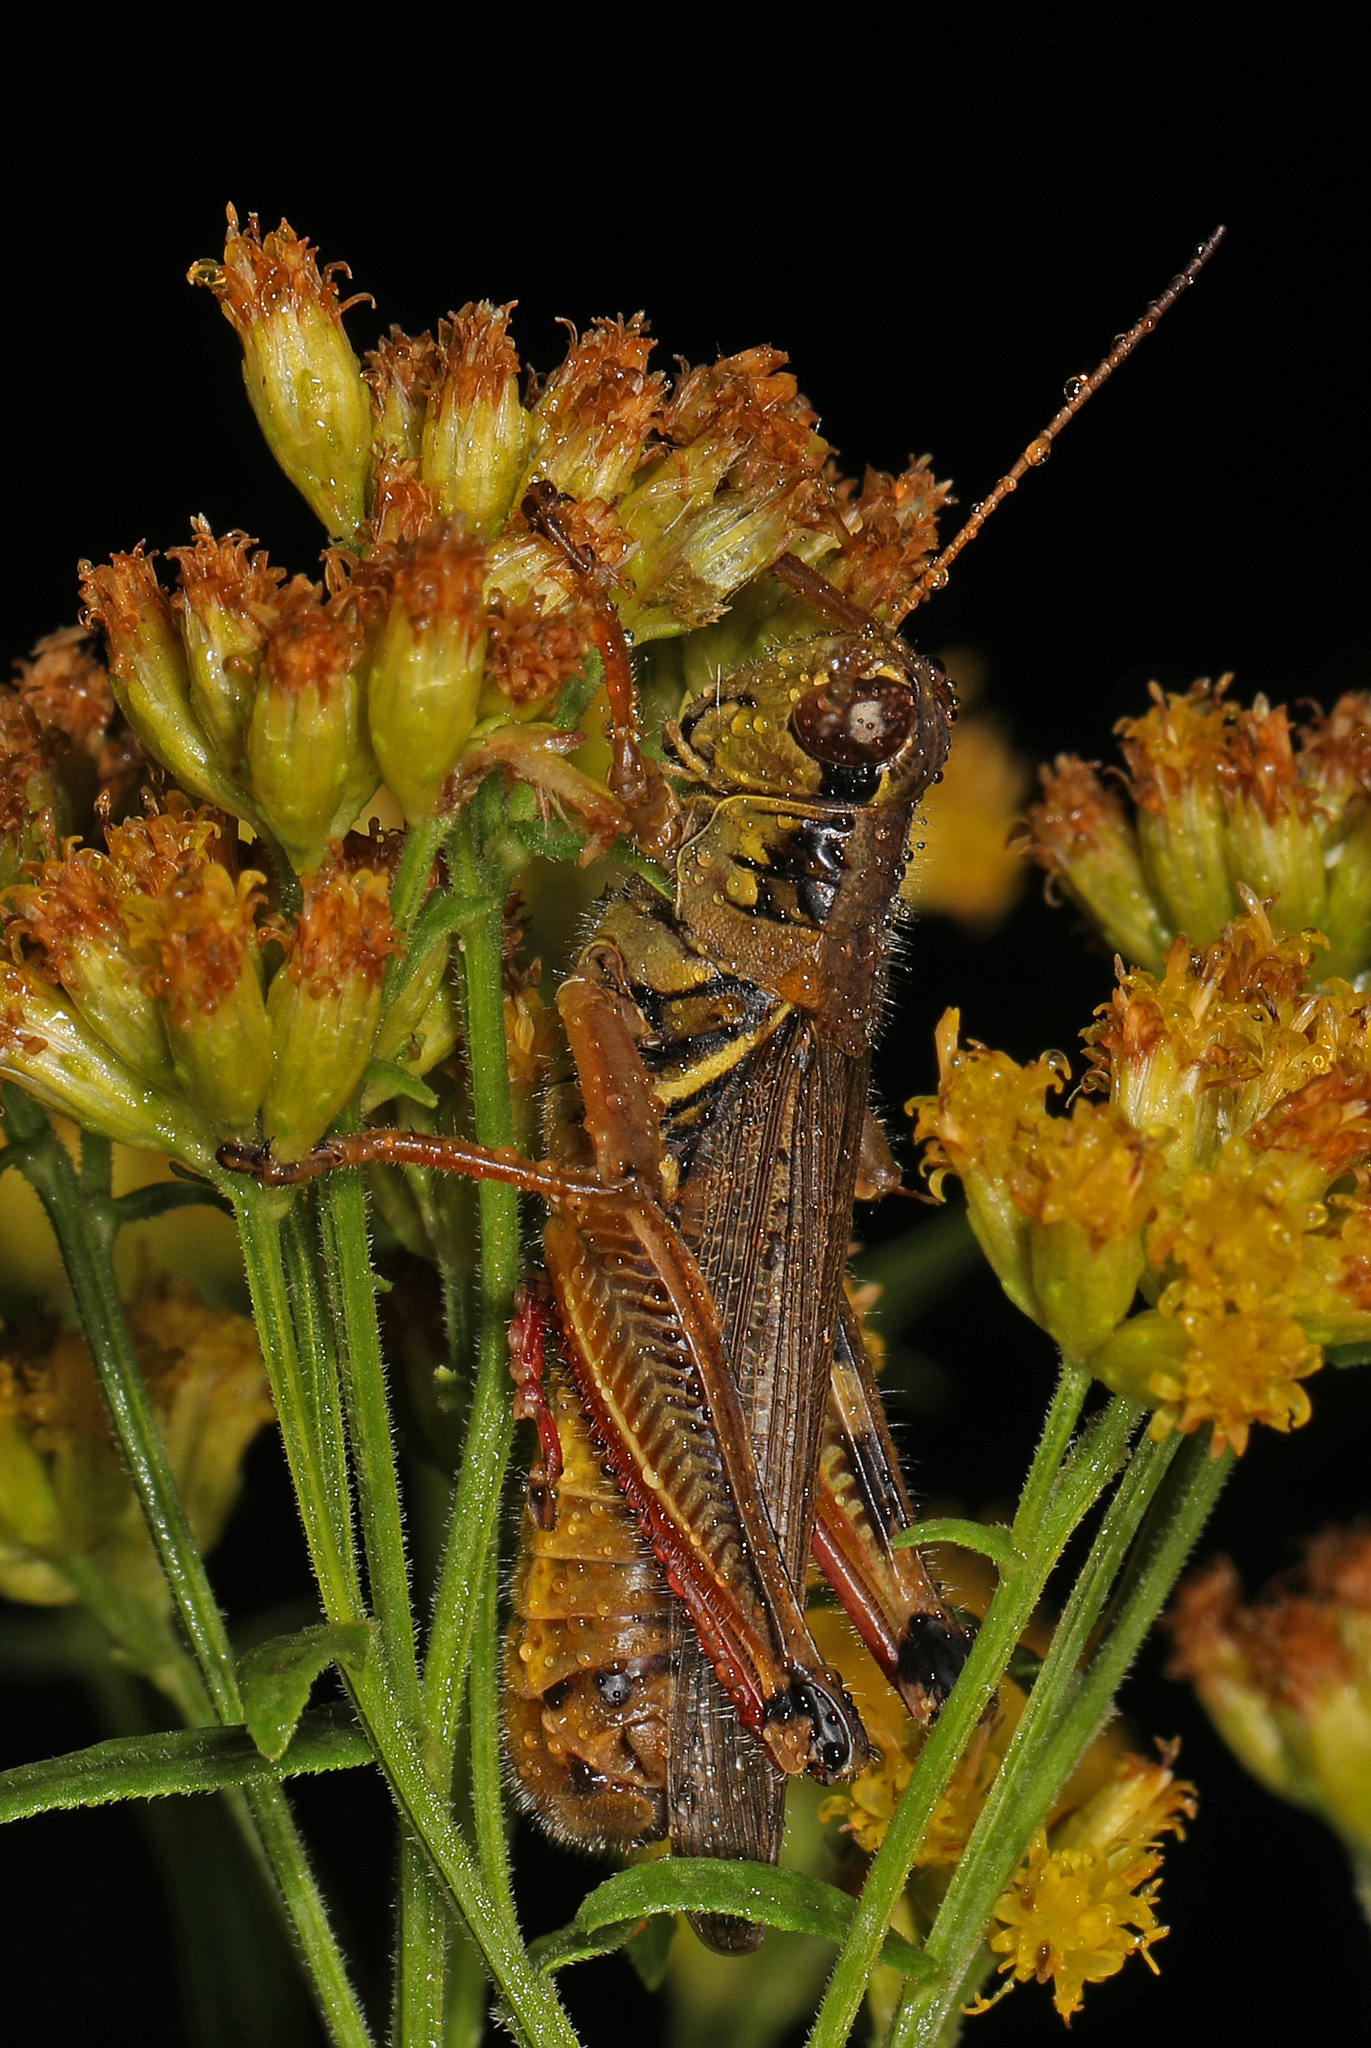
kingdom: Animalia
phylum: Arthropoda
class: Insecta
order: Orthoptera
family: Acrididae
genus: Melanoplus
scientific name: Melanoplus femurrubrum
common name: Red-legged grasshopper
